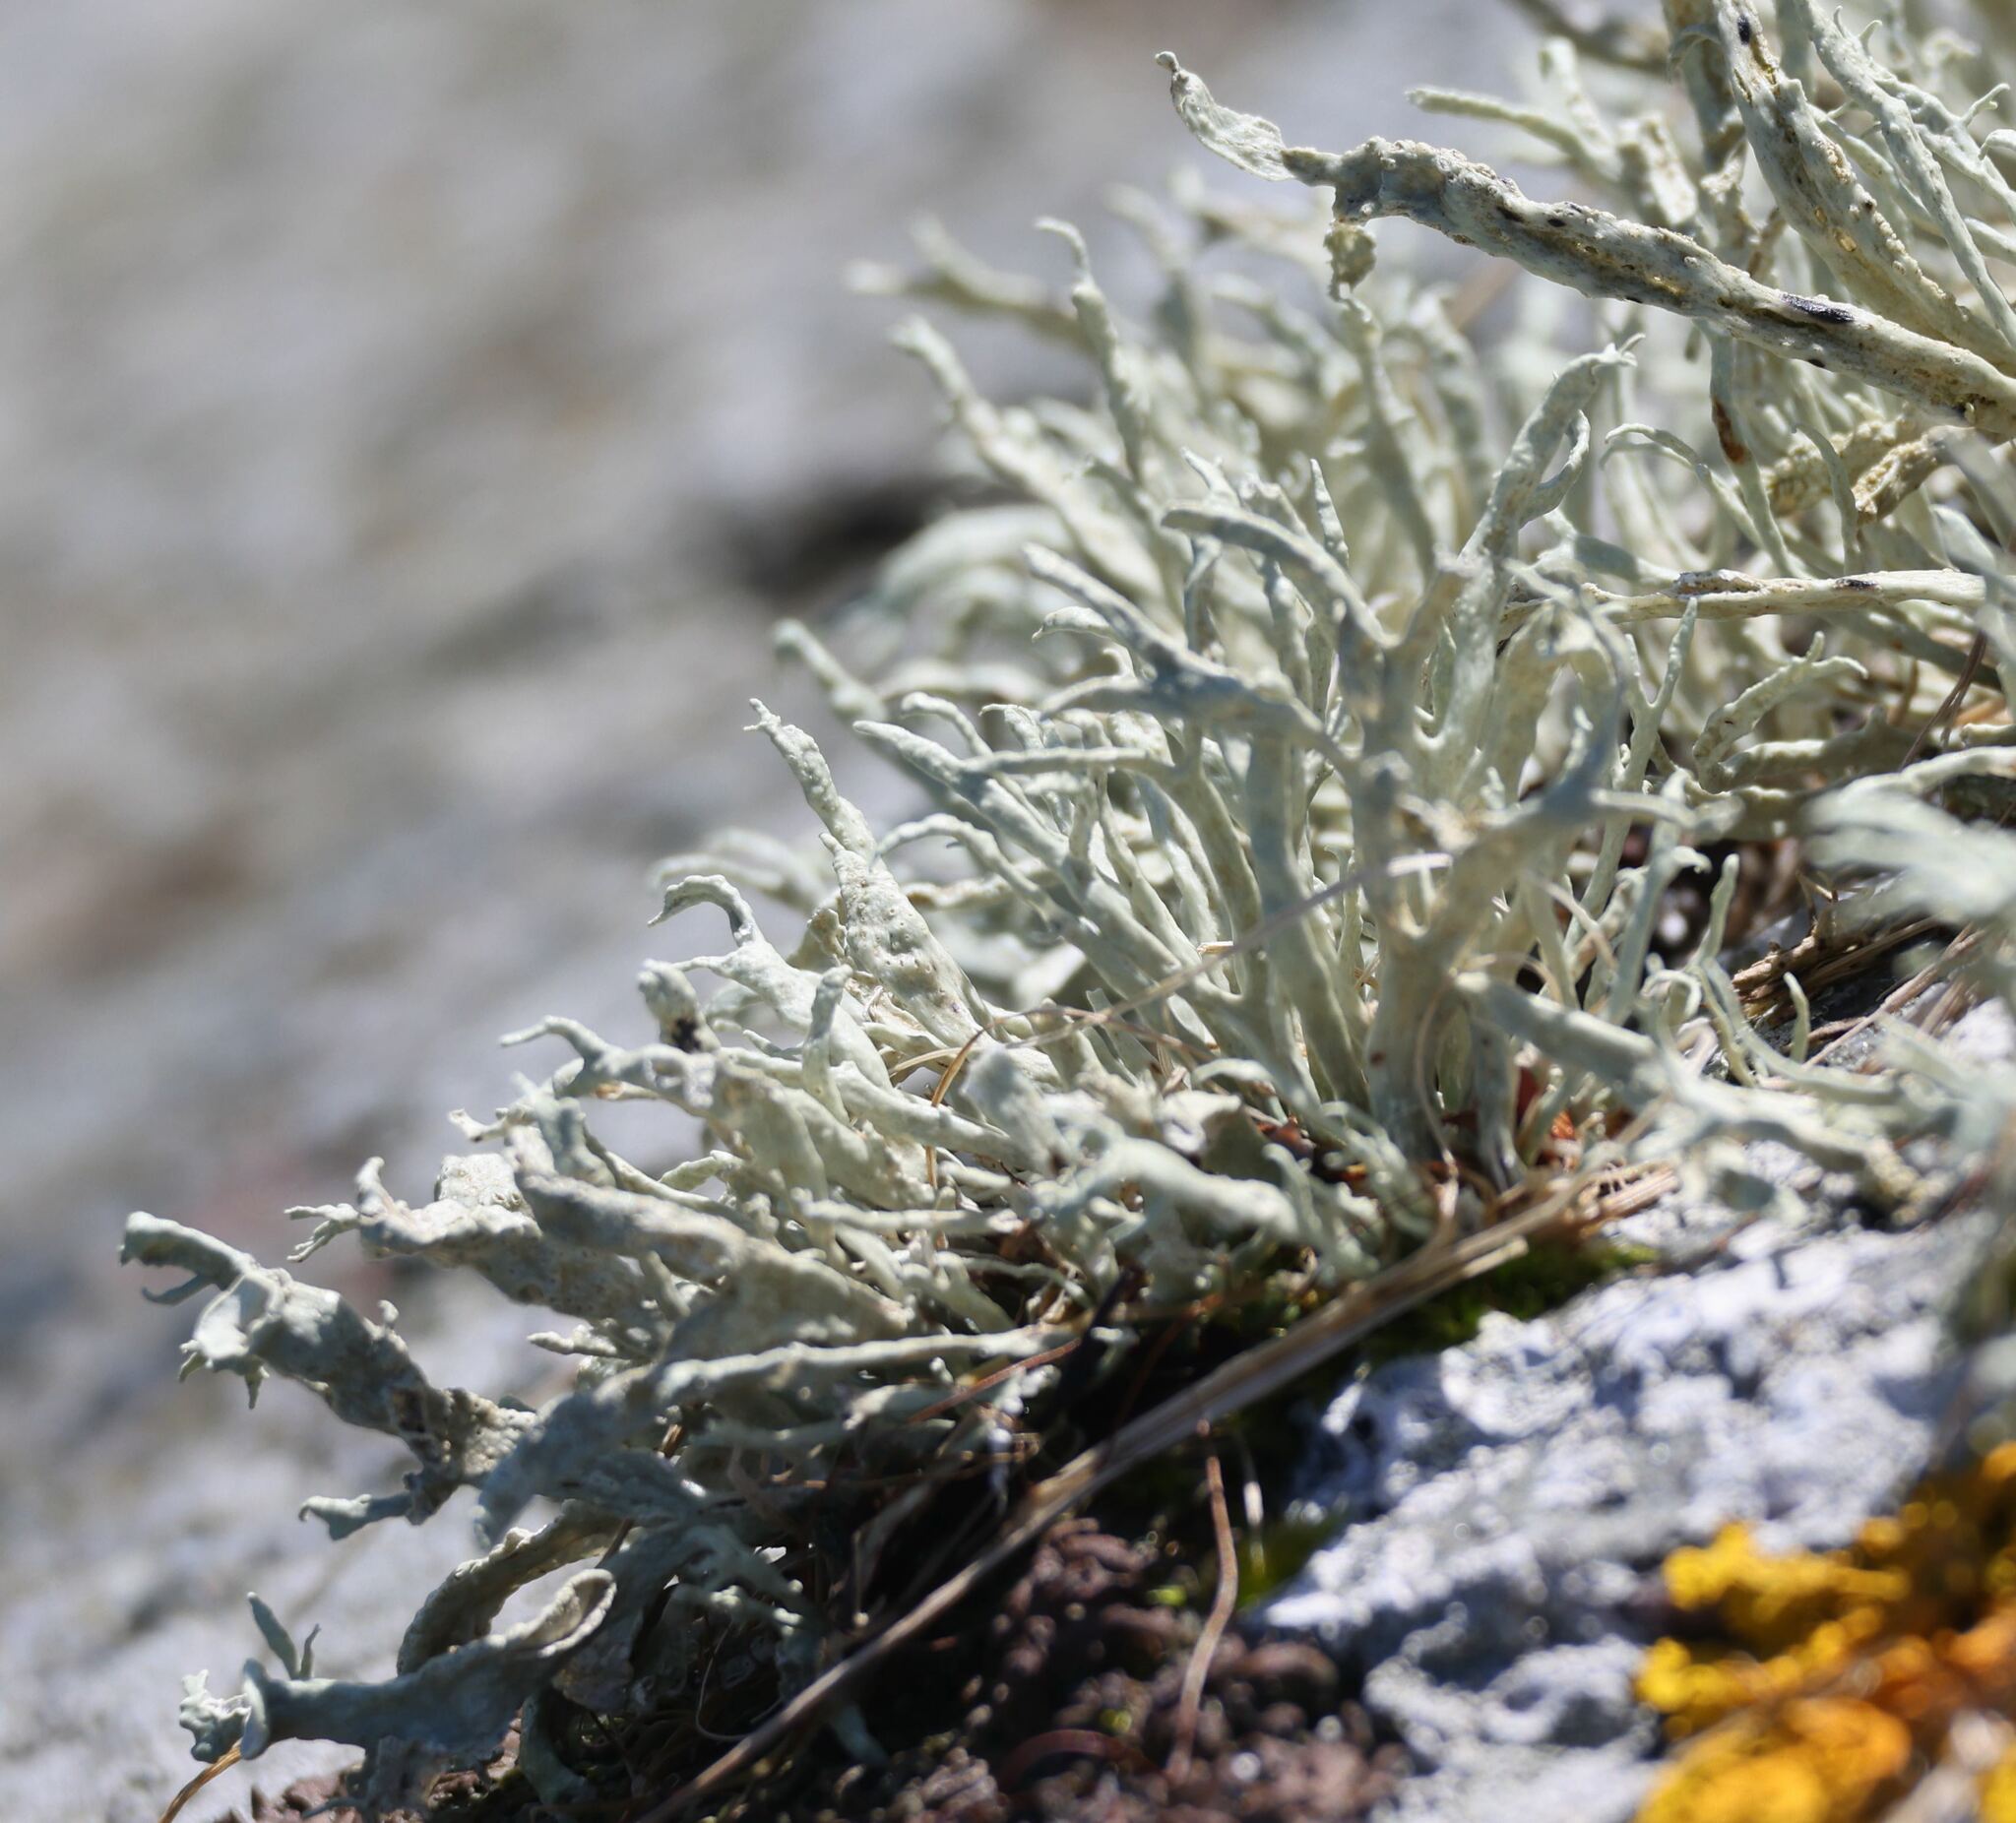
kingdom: Fungi
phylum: Ascomycota
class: Lecanoromycetes
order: Lecanorales
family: Ramalinaceae
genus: Ramalina
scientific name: Ramalina siliquosa
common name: Sea ivory
